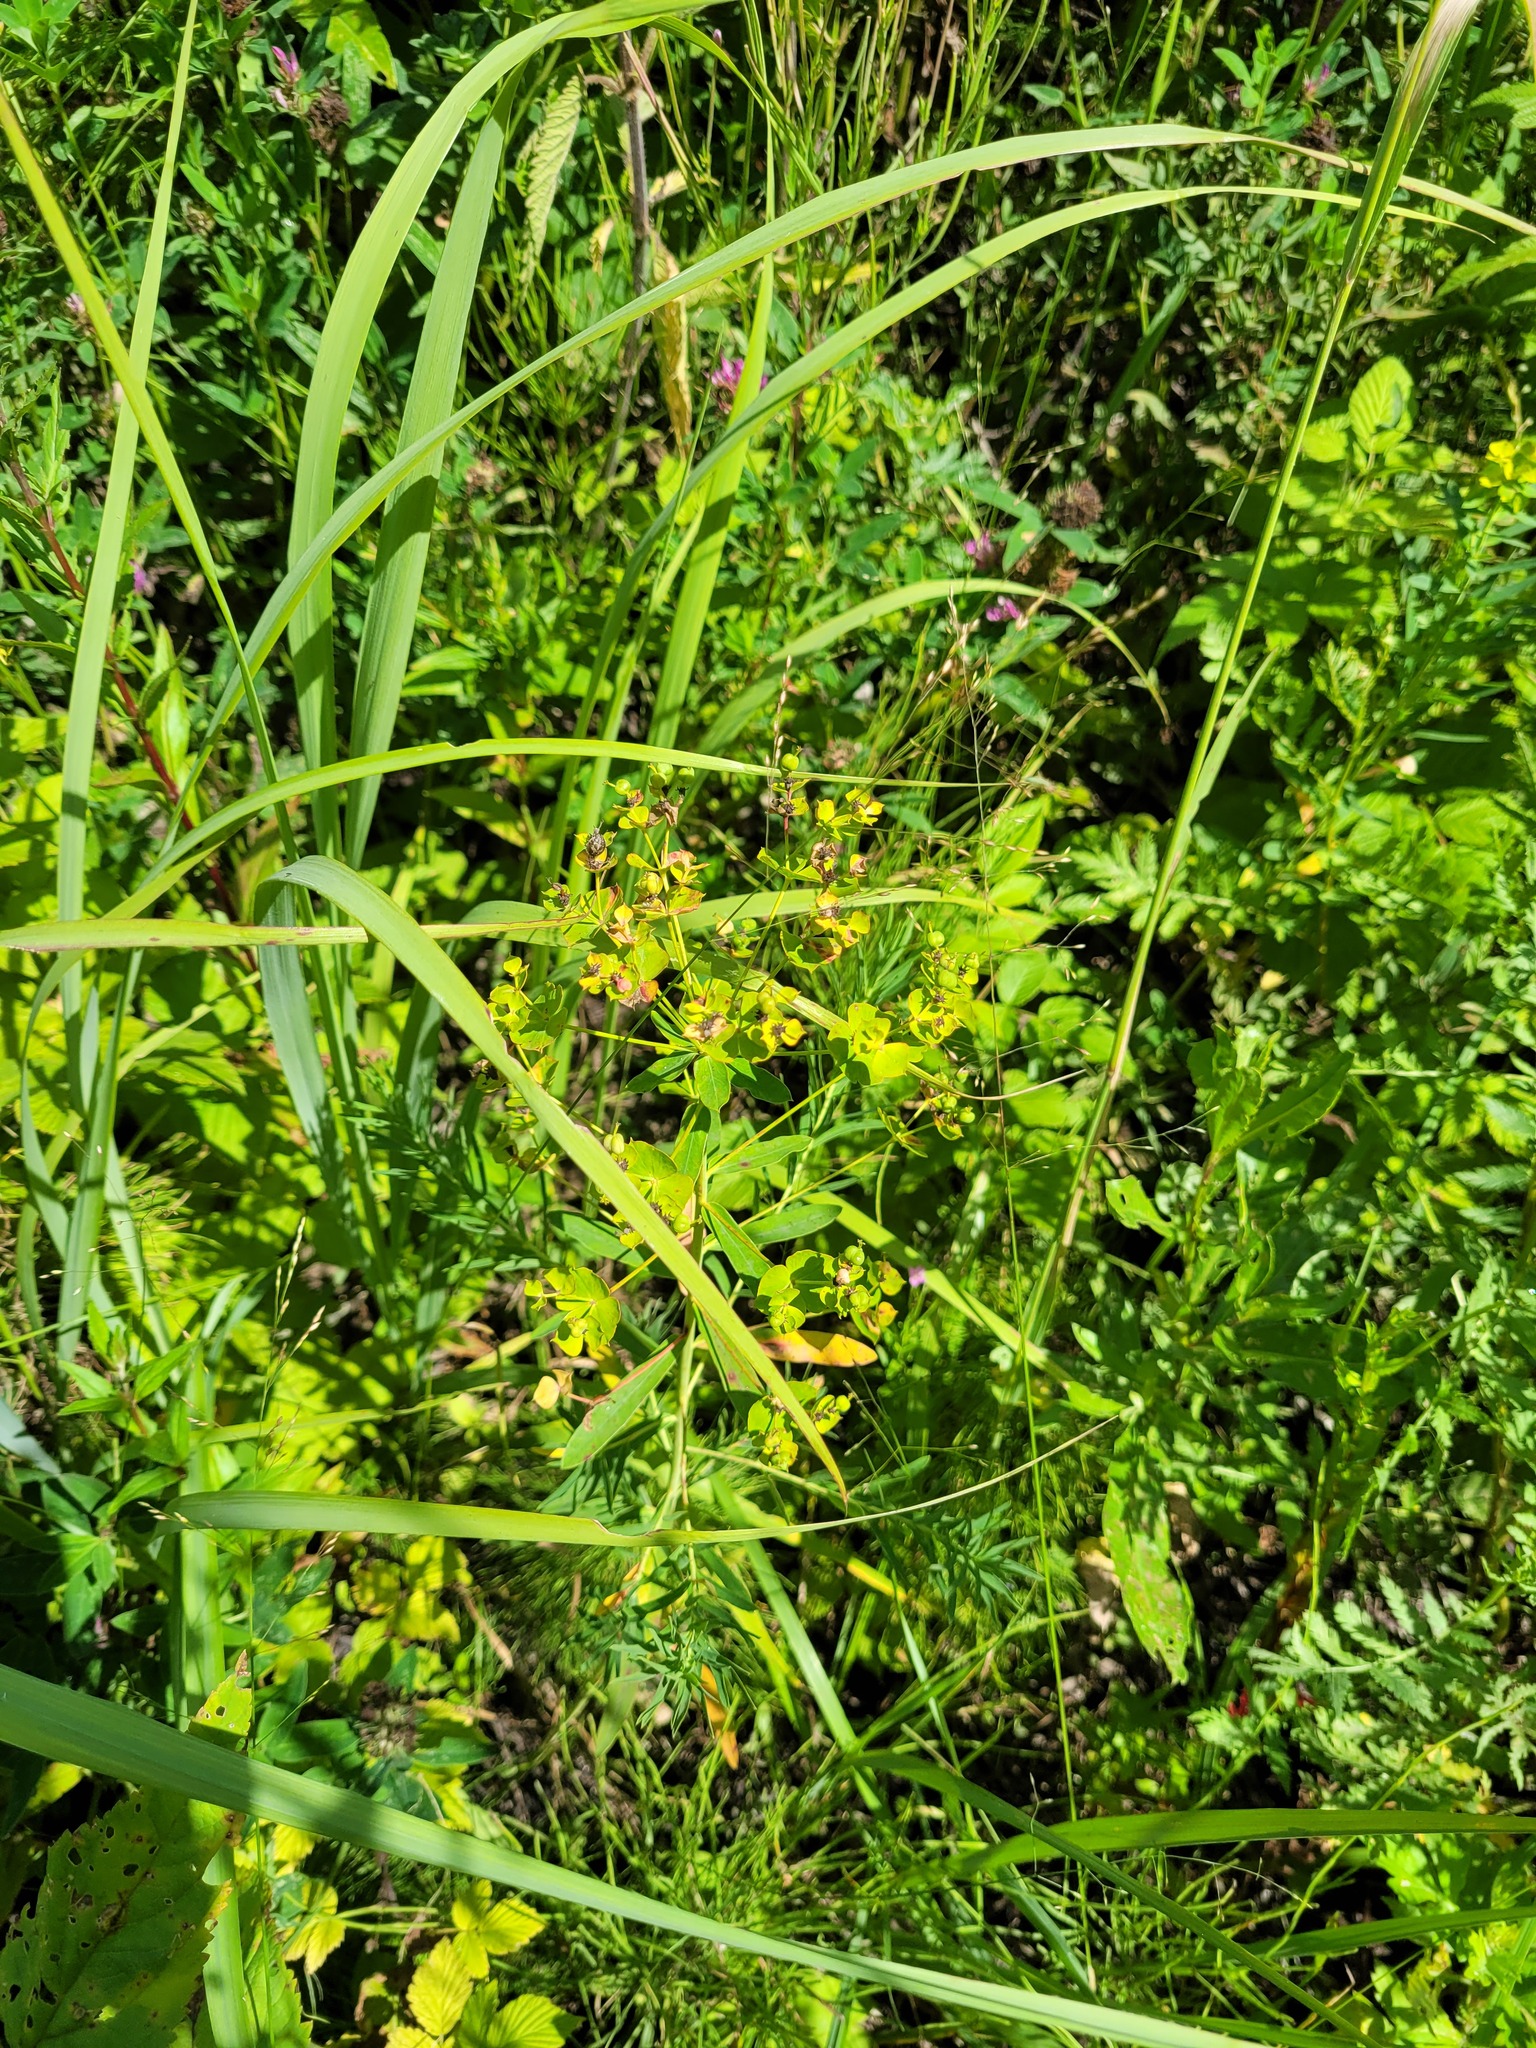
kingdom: Plantae
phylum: Tracheophyta
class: Magnoliopsida
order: Malpighiales
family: Euphorbiaceae
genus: Euphorbia
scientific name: Euphorbia virgata
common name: Leafy spurge
